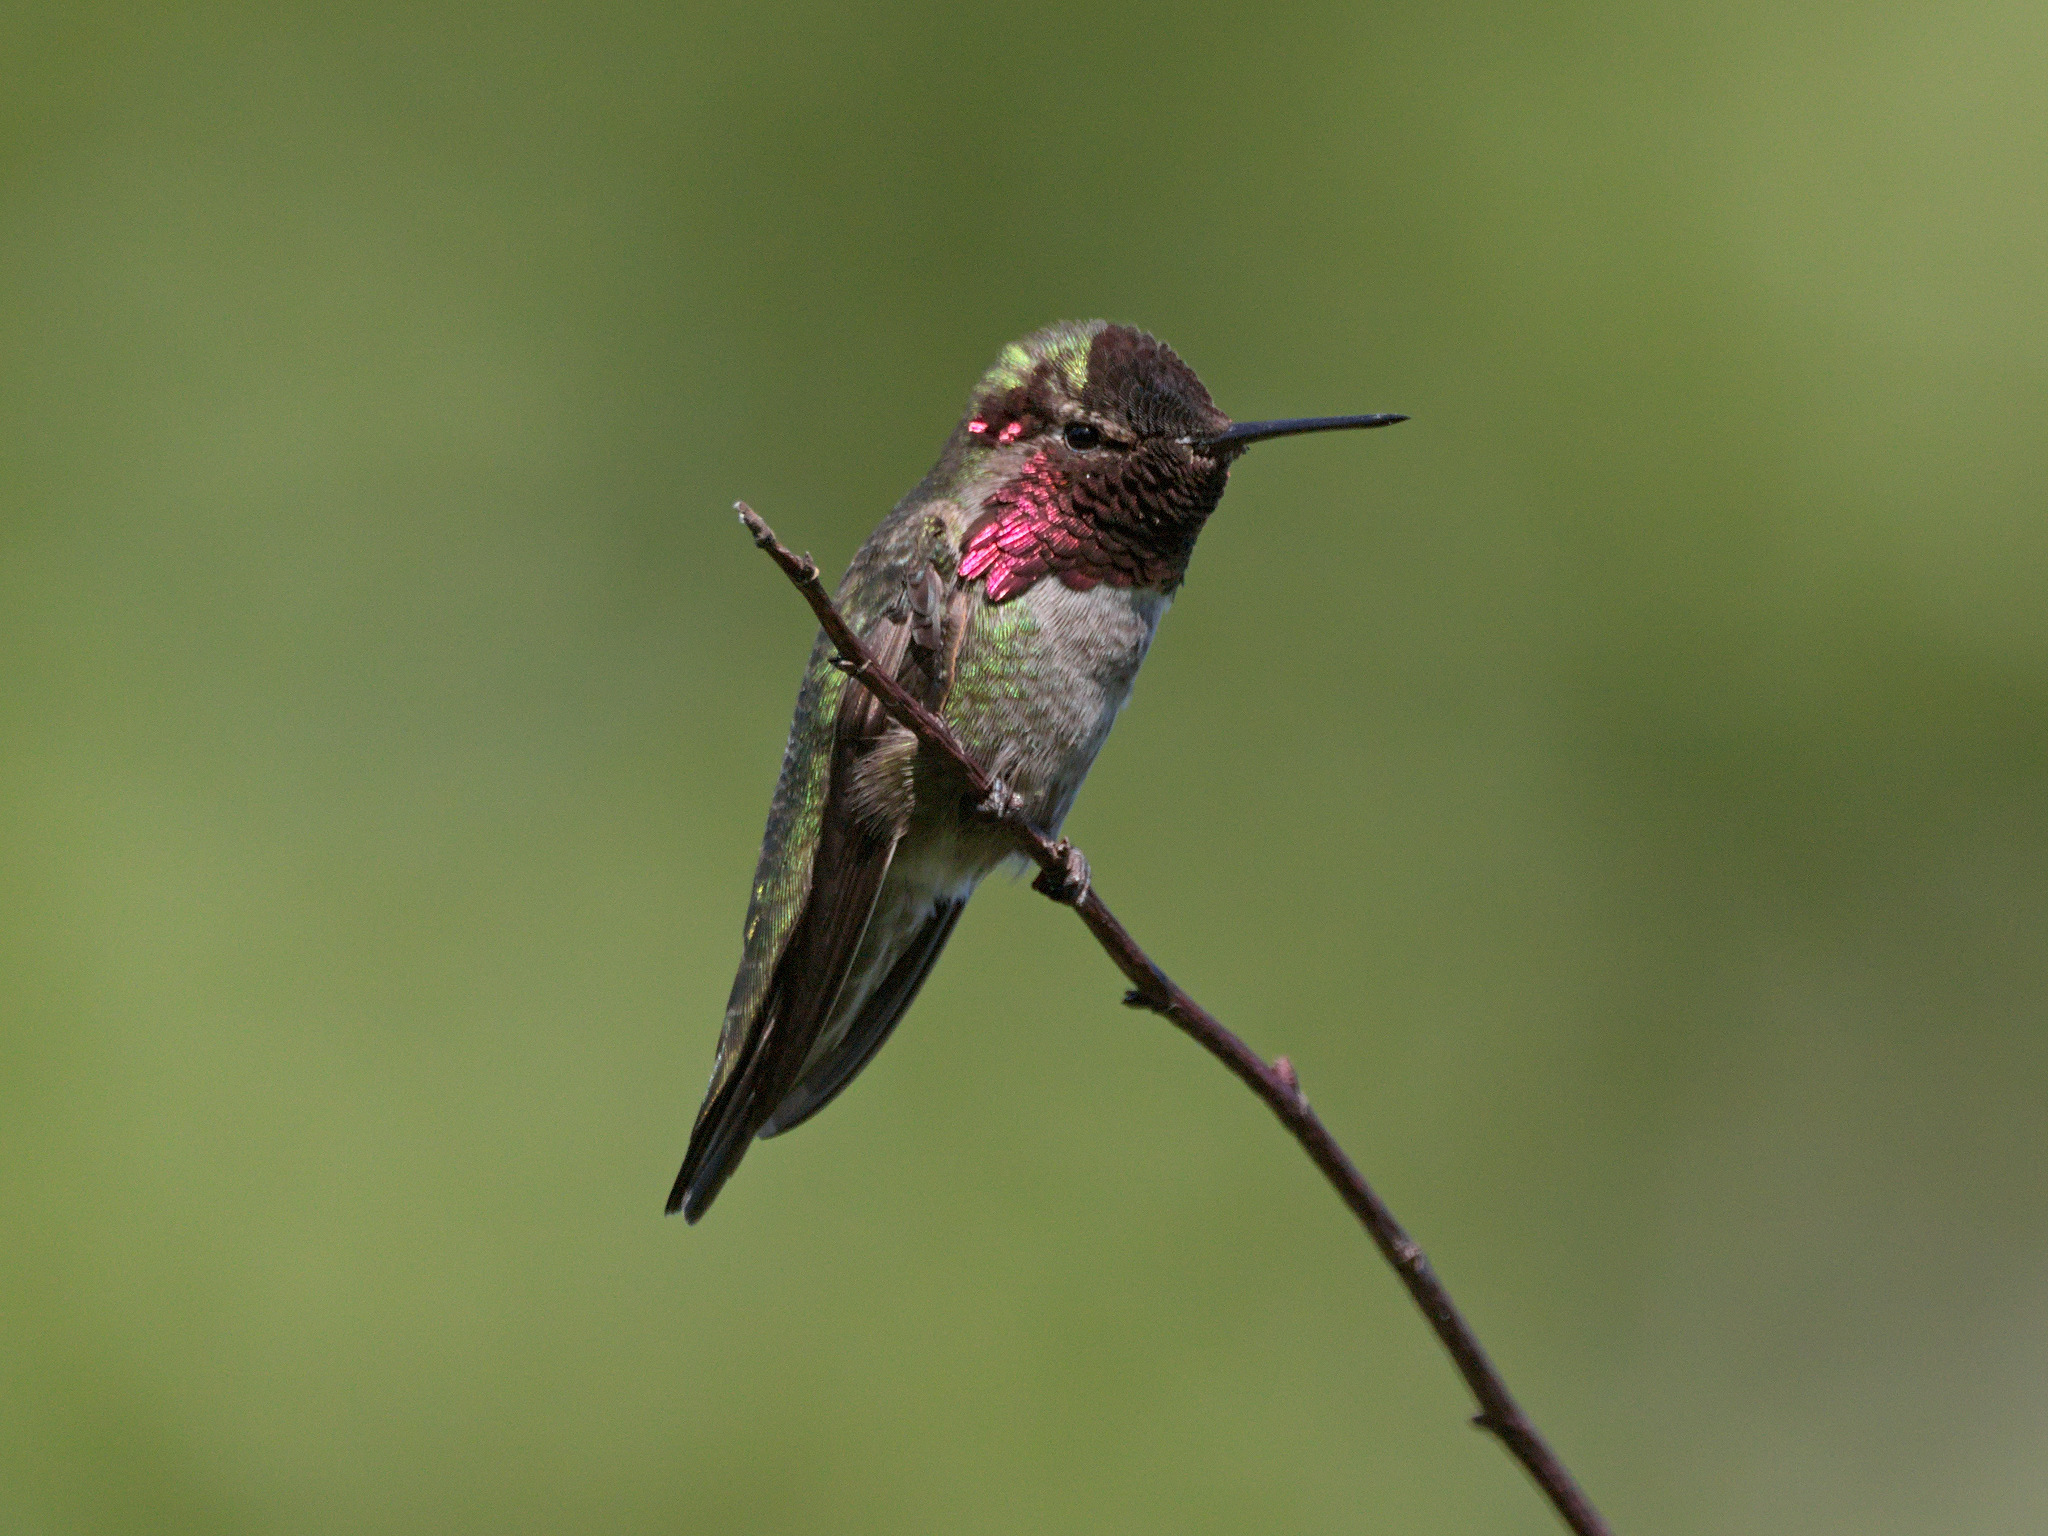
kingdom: Animalia
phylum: Chordata
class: Aves
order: Apodiformes
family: Trochilidae
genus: Calypte
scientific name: Calypte anna
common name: Anna's hummingbird
